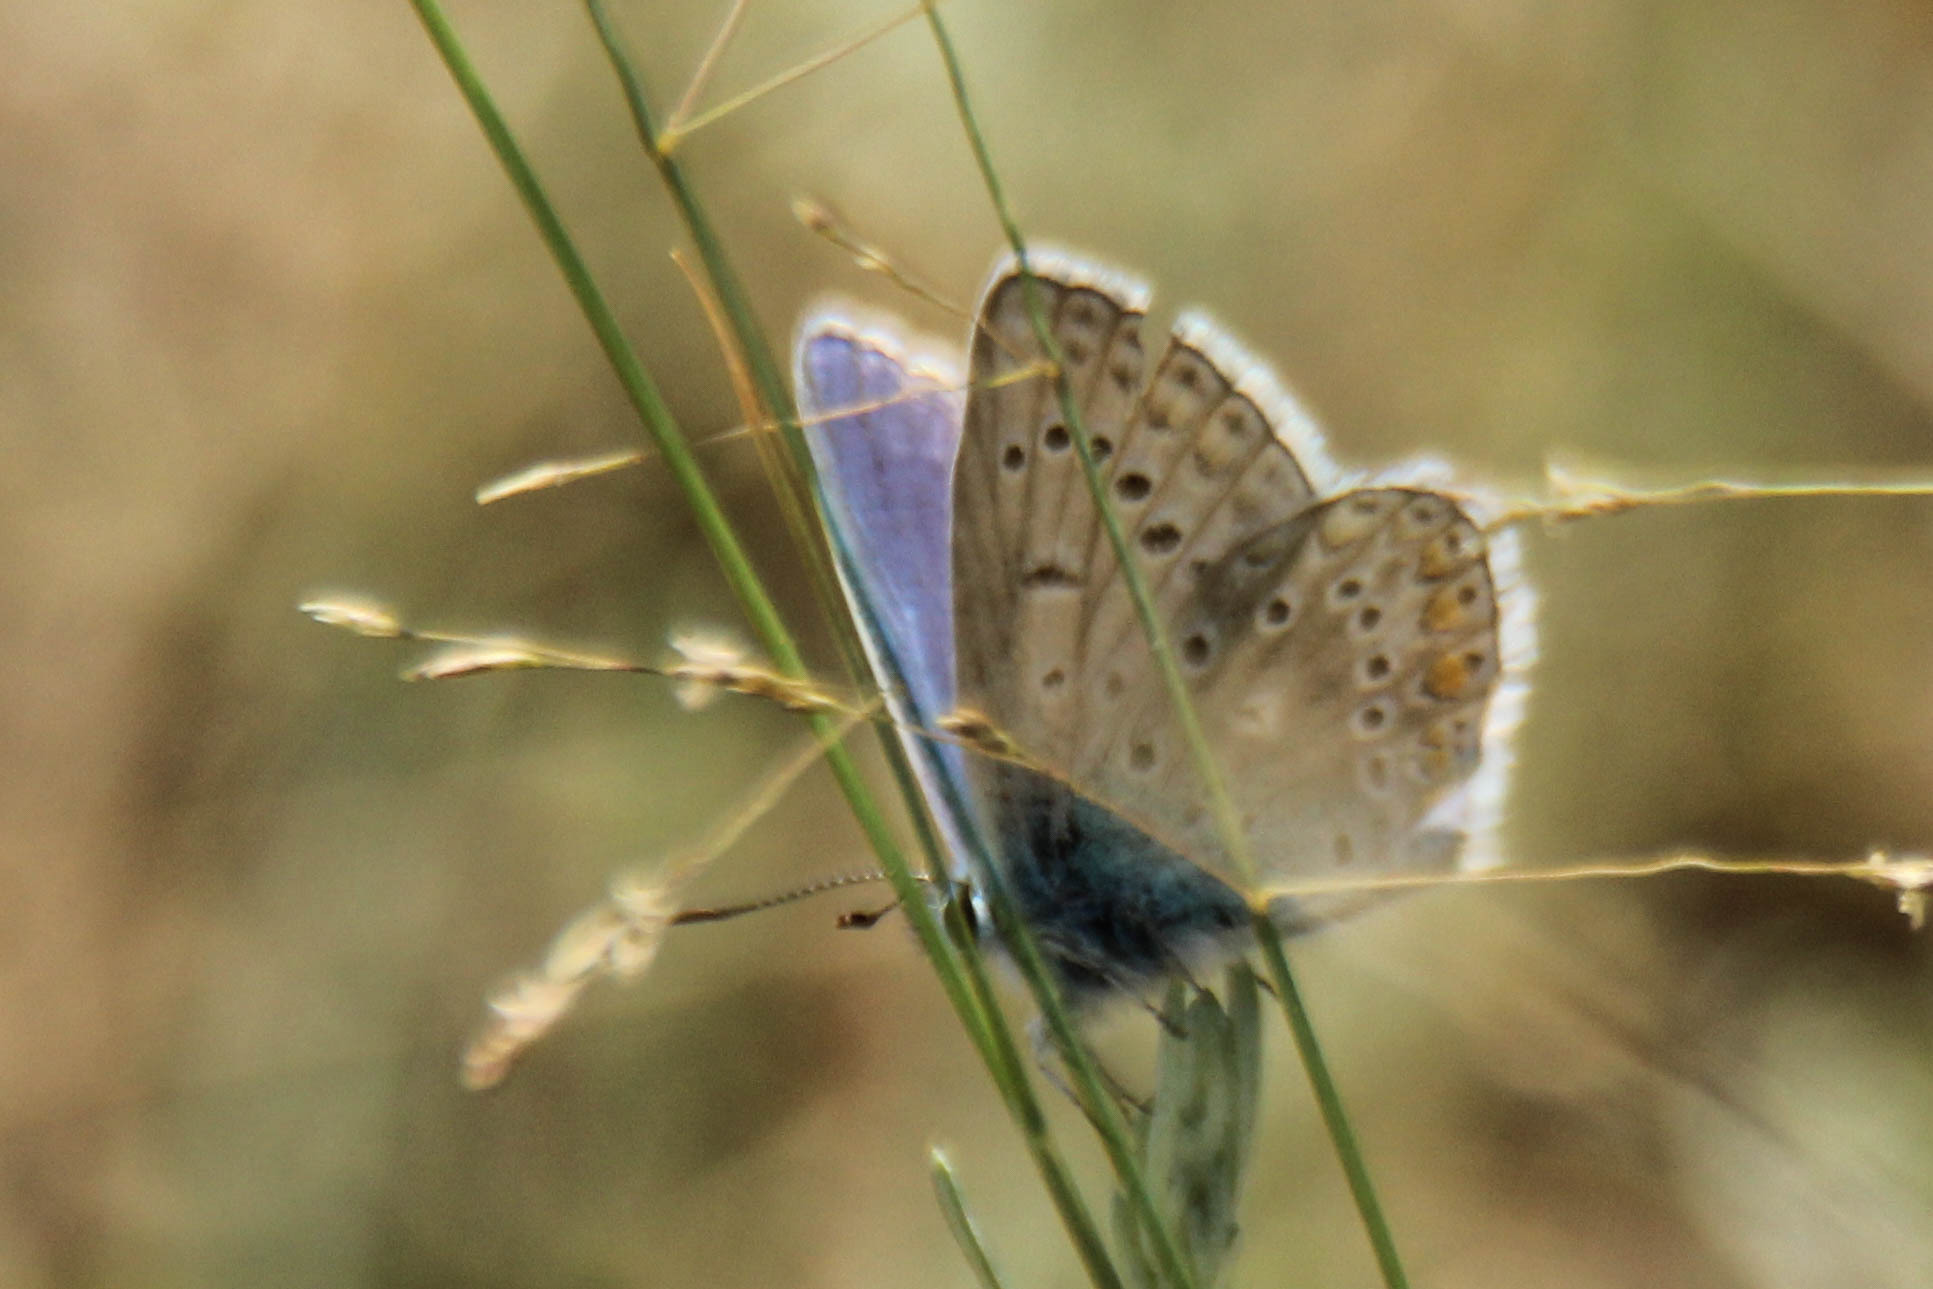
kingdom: Animalia
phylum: Arthropoda
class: Insecta
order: Lepidoptera
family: Lycaenidae
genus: Polyommatus
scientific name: Polyommatus icarus
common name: Common blue
